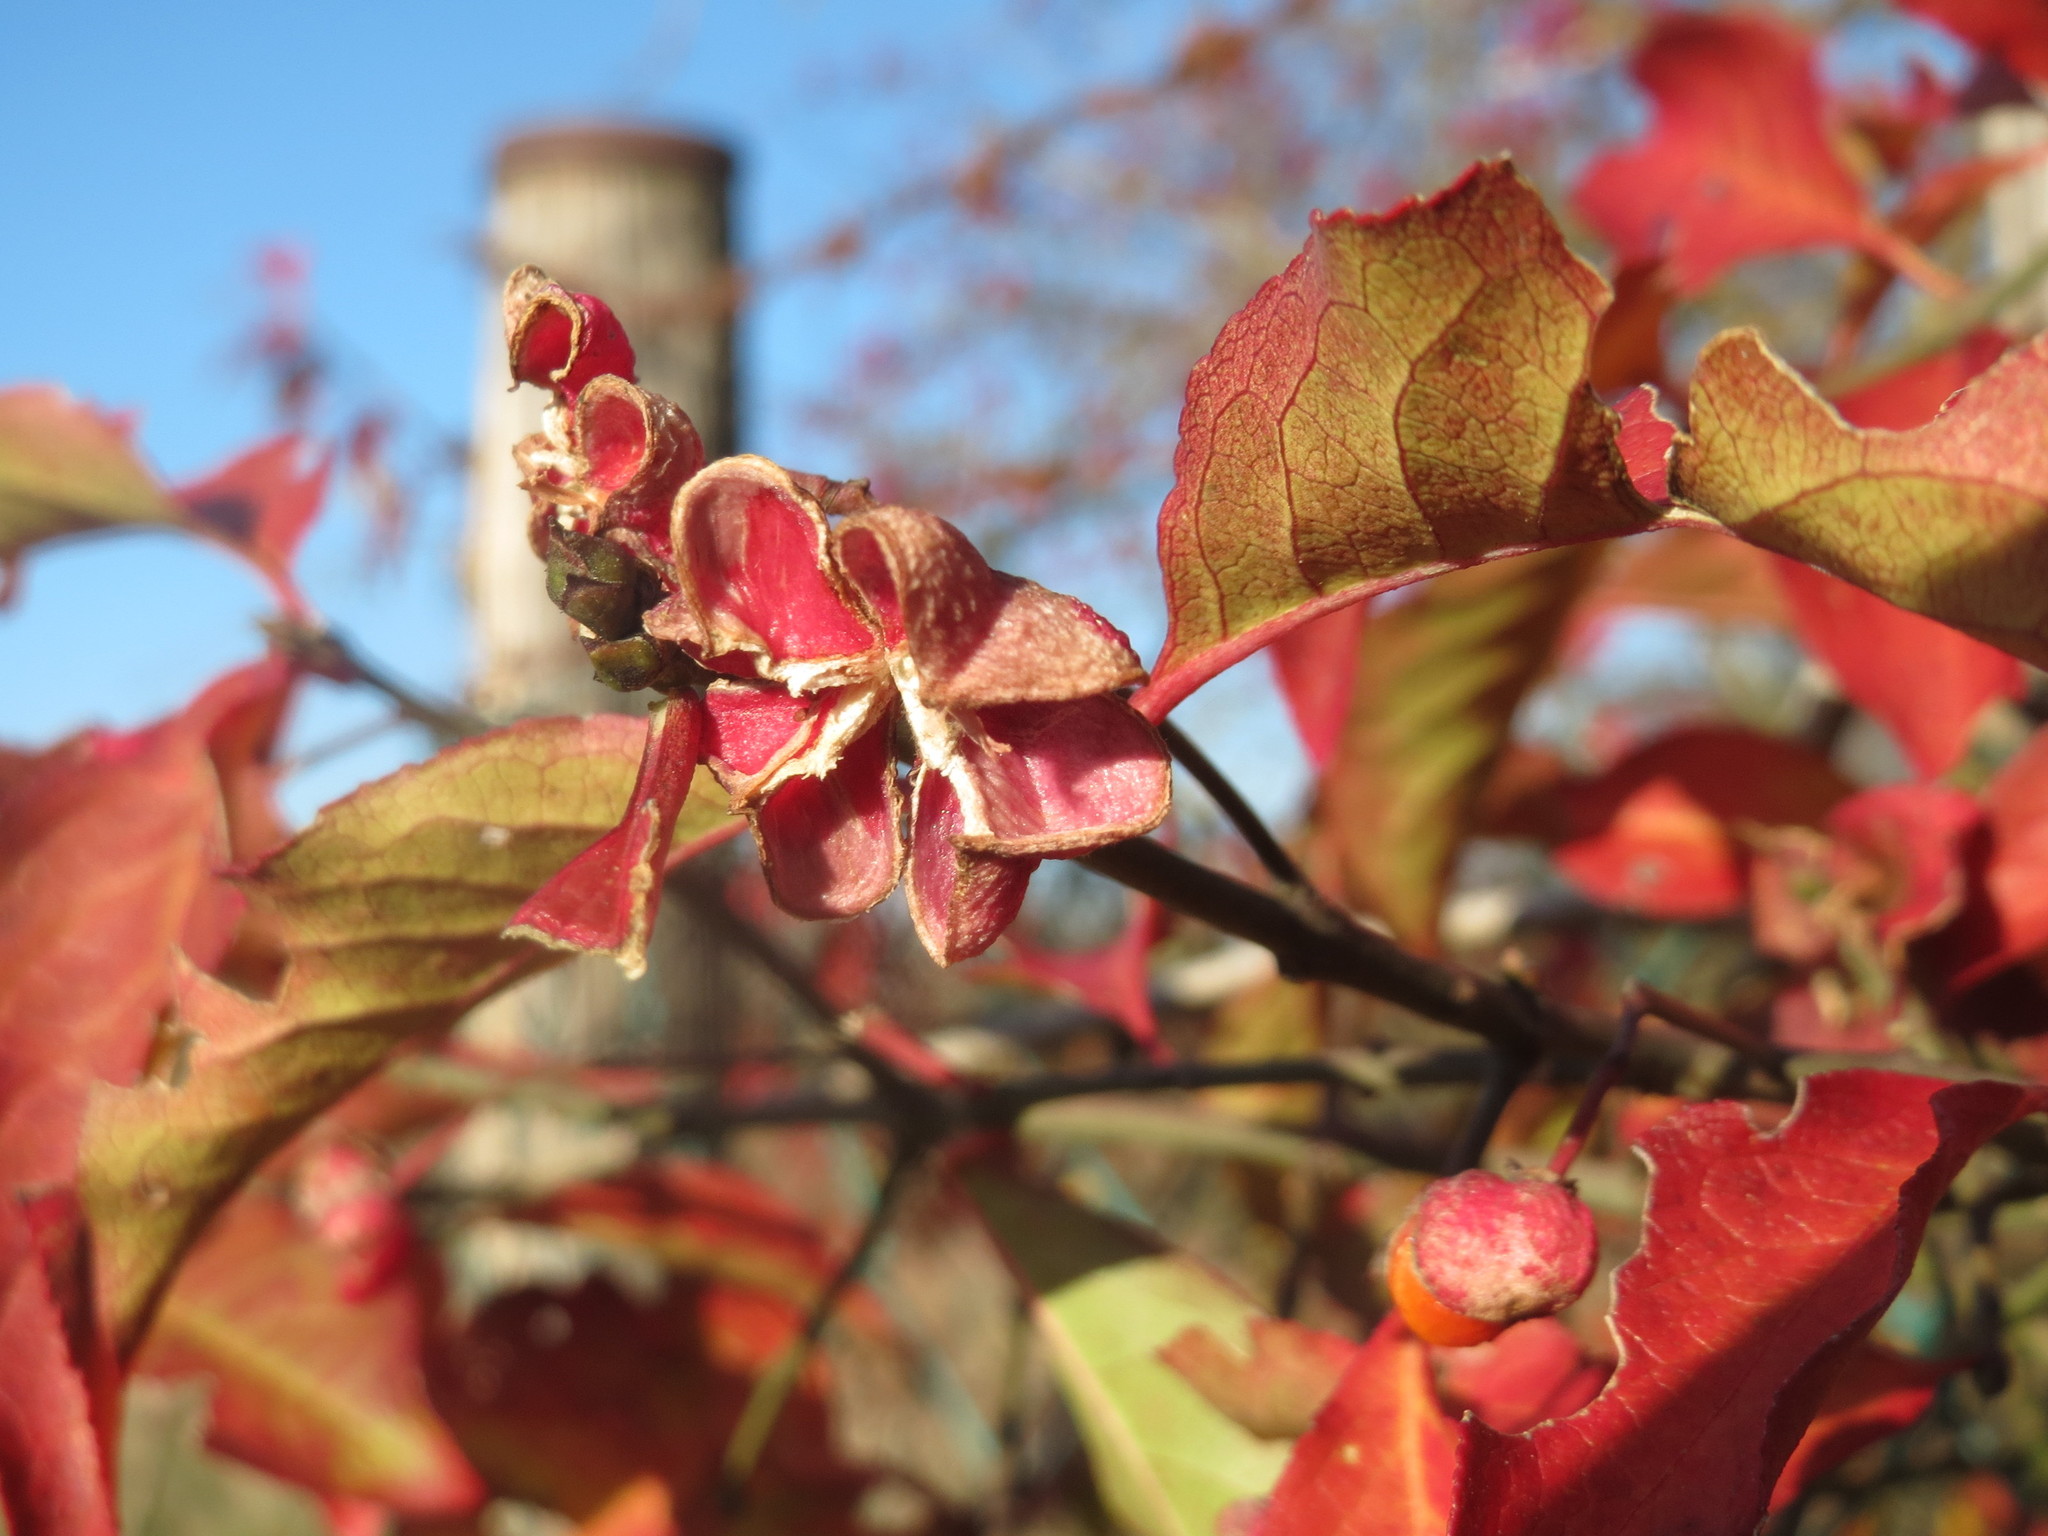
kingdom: Plantae
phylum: Tracheophyta
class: Magnoliopsida
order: Celastrales
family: Celastraceae
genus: Euonymus
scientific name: Euonymus europaeus
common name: Spindle
